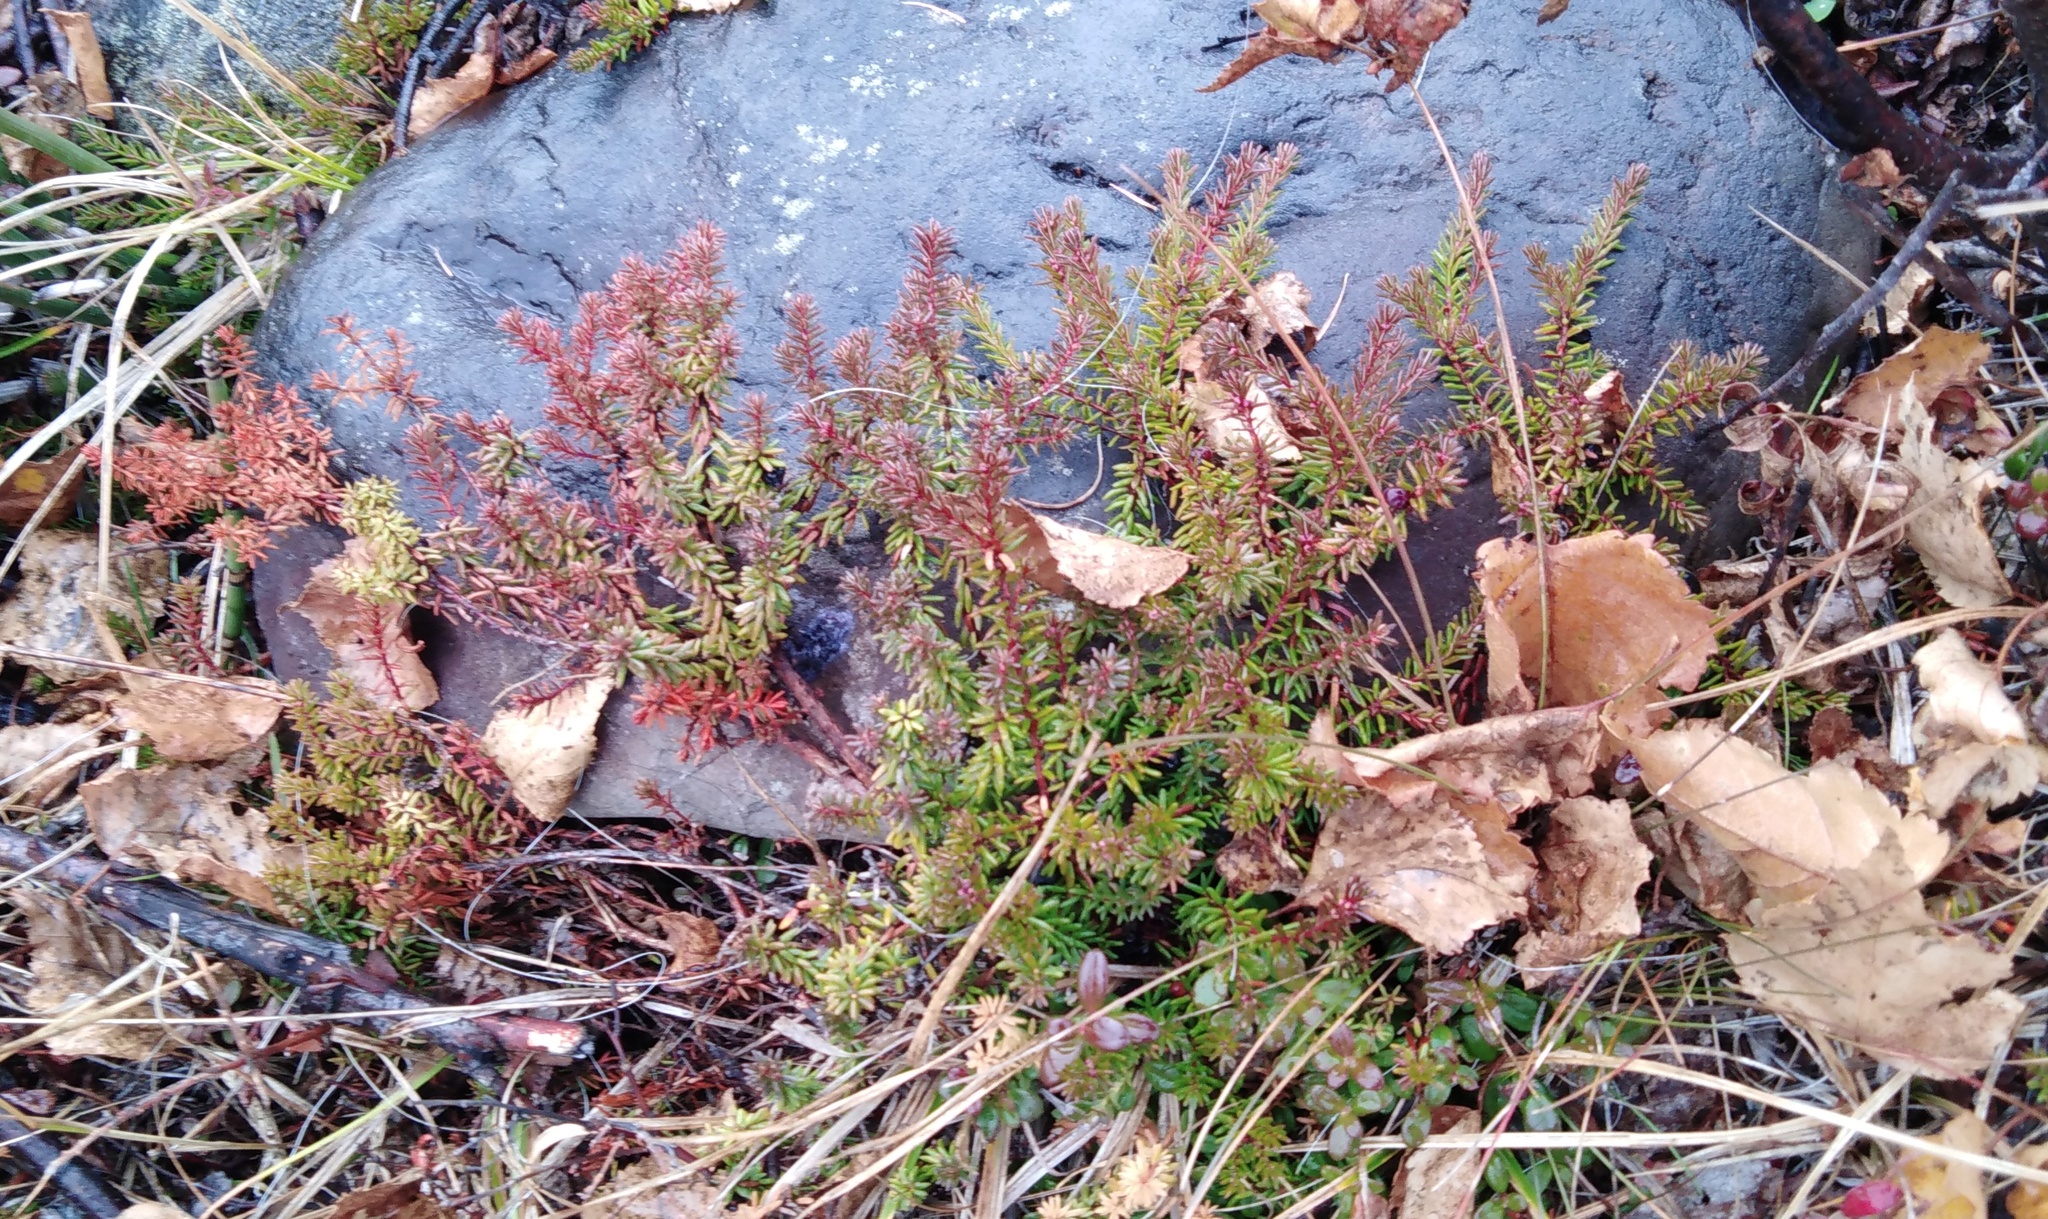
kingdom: Plantae
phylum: Tracheophyta
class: Magnoliopsida
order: Ericales
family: Ericaceae
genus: Empetrum
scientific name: Empetrum nigrum
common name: Black crowberry
